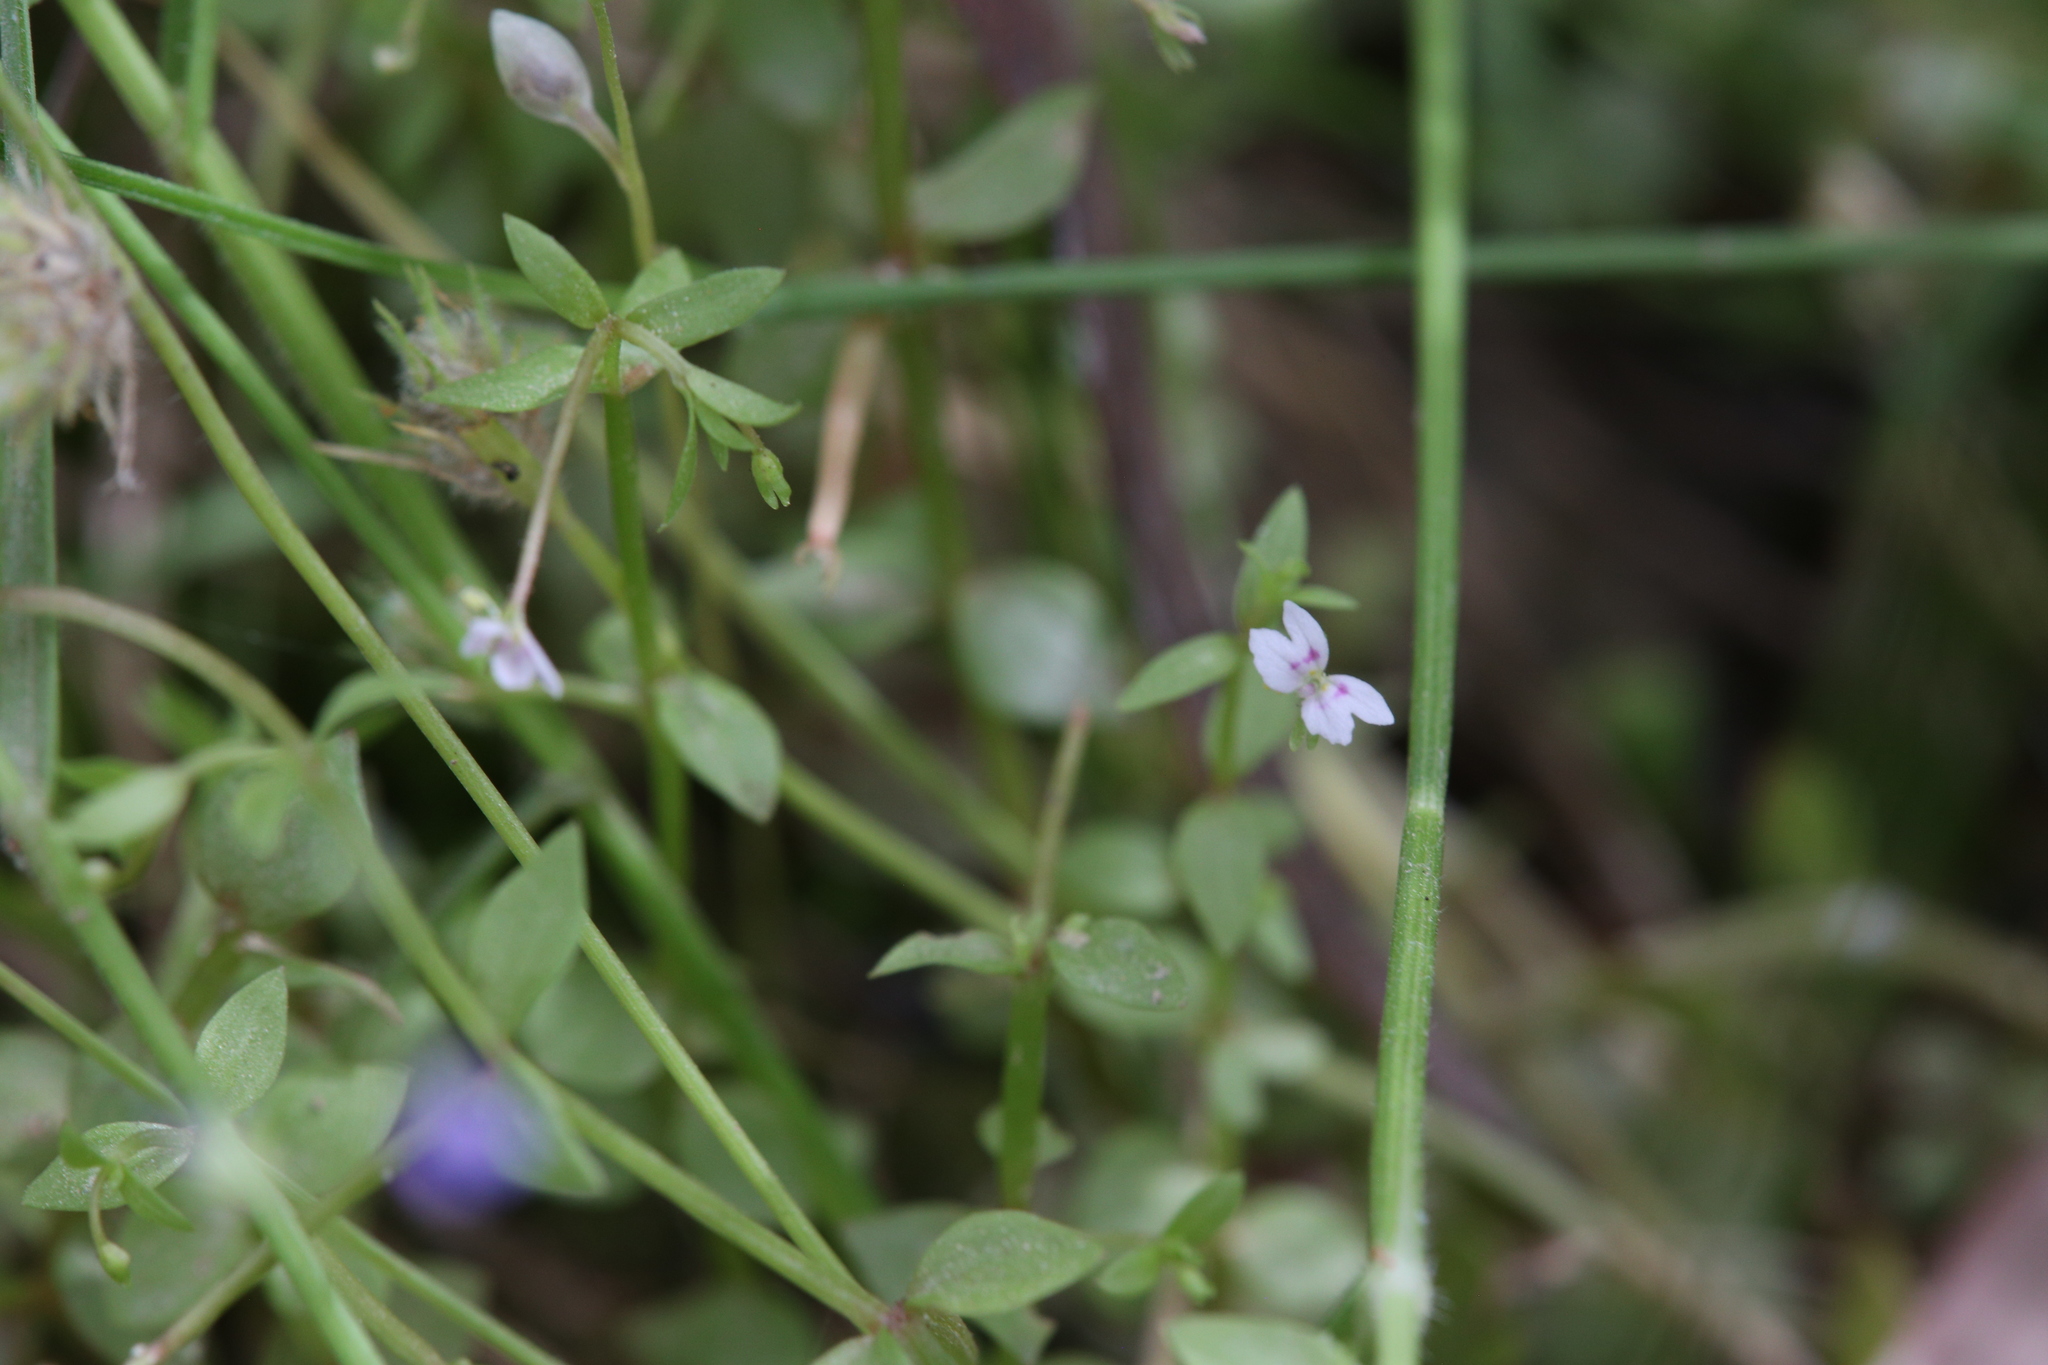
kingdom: Plantae
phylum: Tracheophyta
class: Magnoliopsida
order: Asterales
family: Stylidiaceae
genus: Stylidium
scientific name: Stylidium alsinoides
